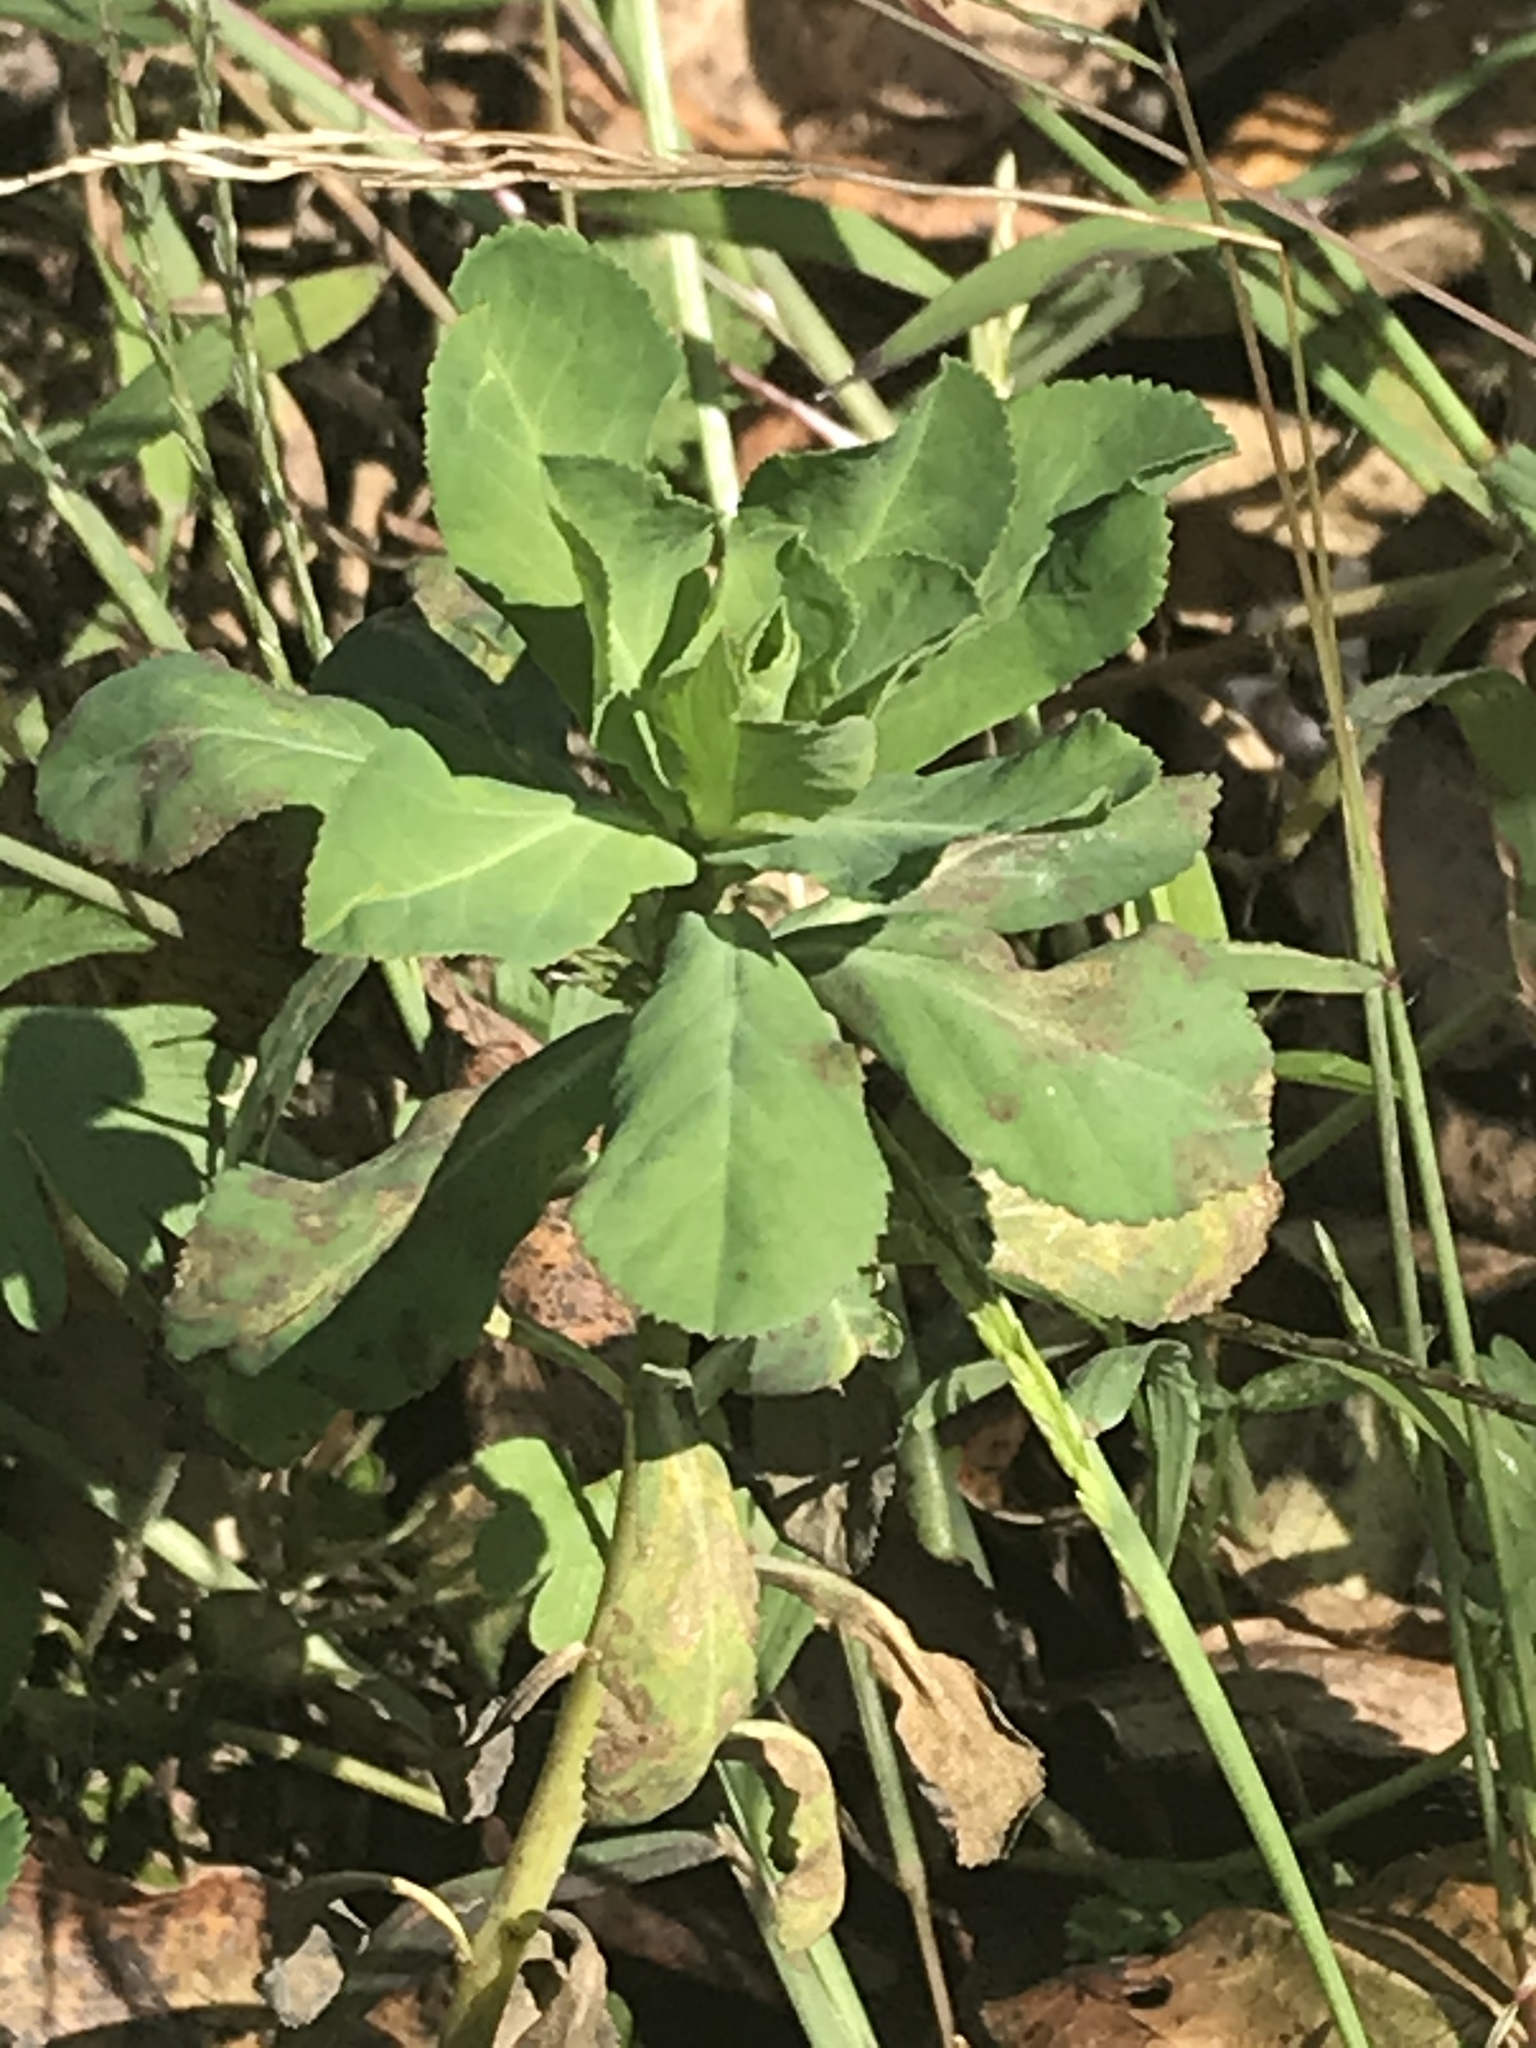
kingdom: Plantae
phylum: Tracheophyta
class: Magnoliopsida
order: Malpighiales
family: Euphorbiaceae
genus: Euphorbia
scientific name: Euphorbia helioscopia
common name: Sun spurge
